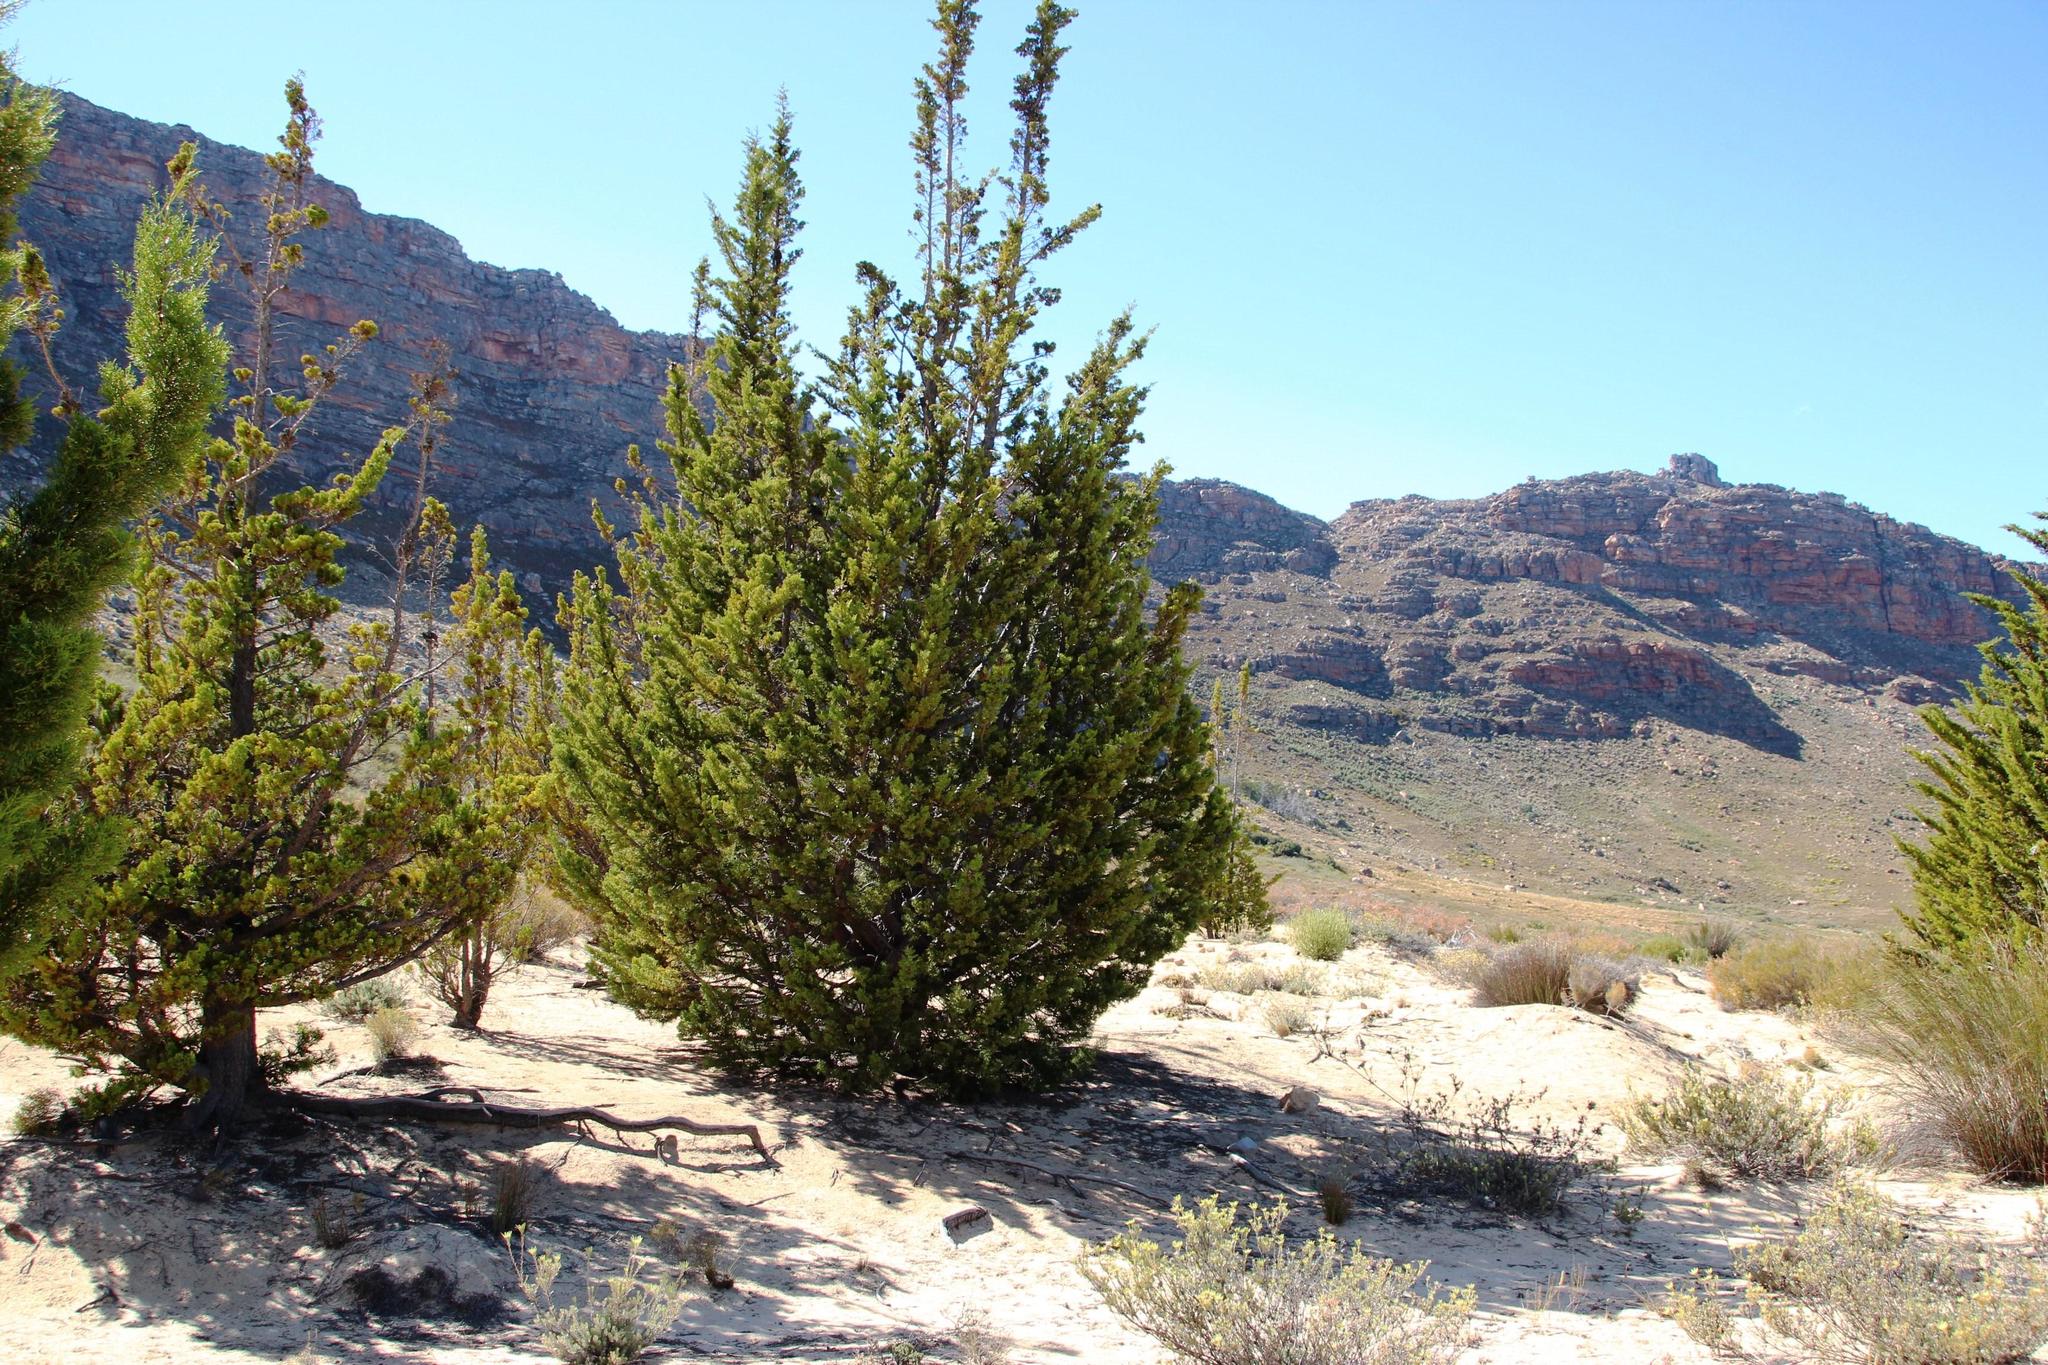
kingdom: Plantae
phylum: Tracheophyta
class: Pinopsida
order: Pinales
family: Cupressaceae
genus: Widdringtonia
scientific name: Widdringtonia nodiflora
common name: Cape cypress
